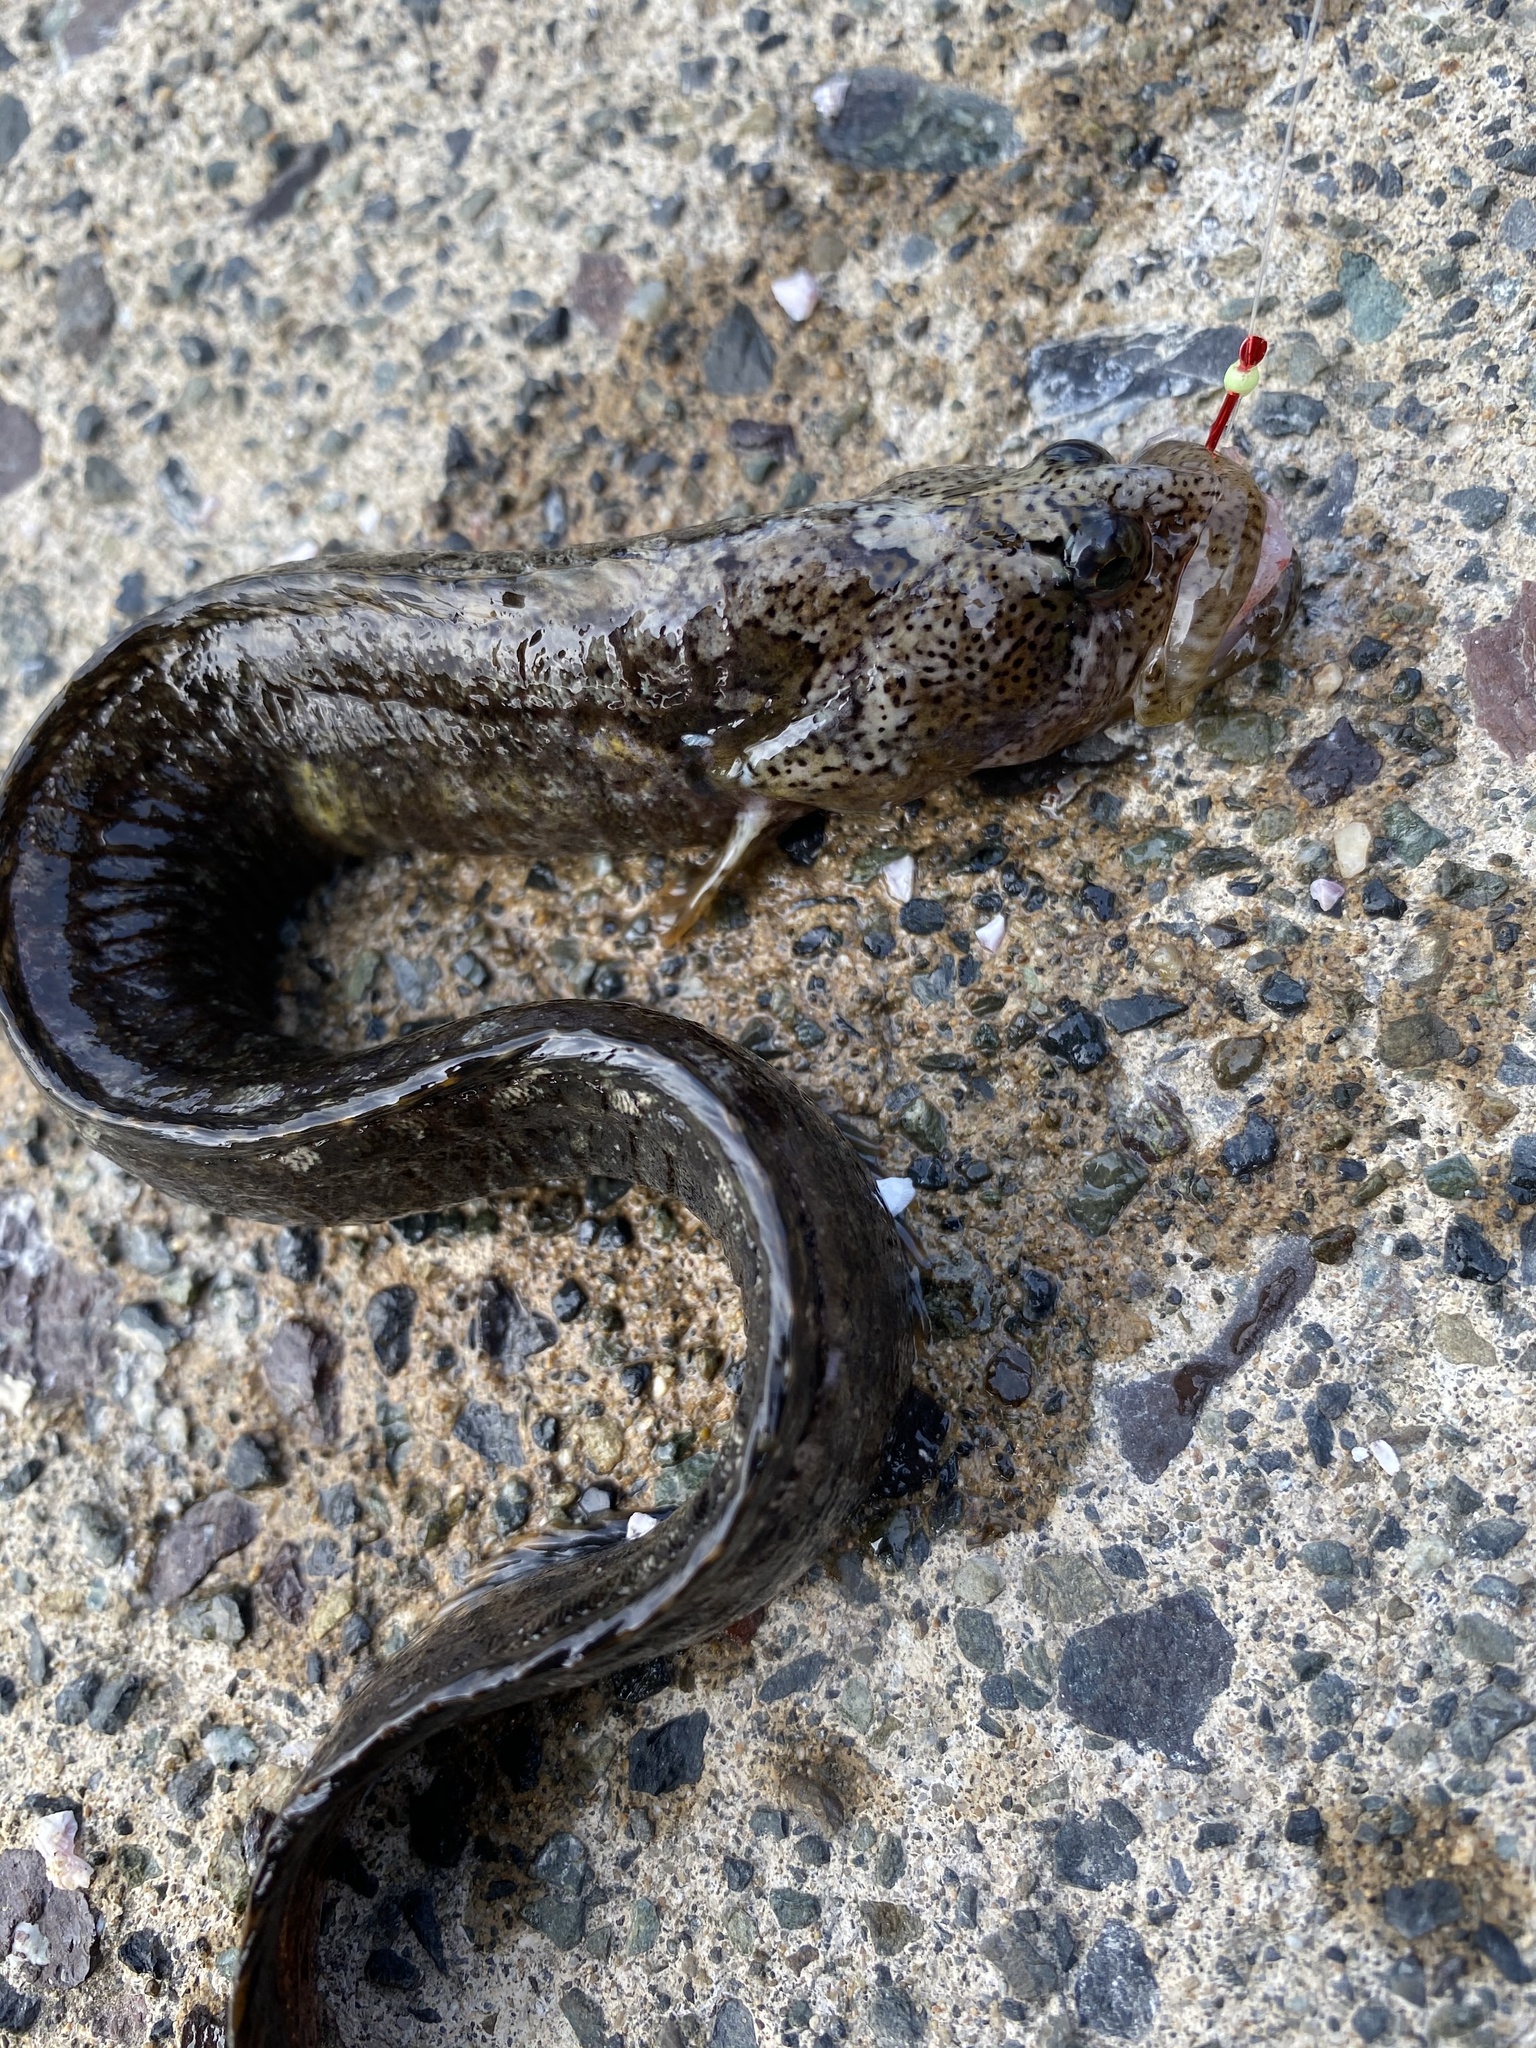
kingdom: Animalia
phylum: Chordata
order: Perciformes
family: Stichaeidae
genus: Dictyosoma
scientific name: Dictyosoma burgeri
